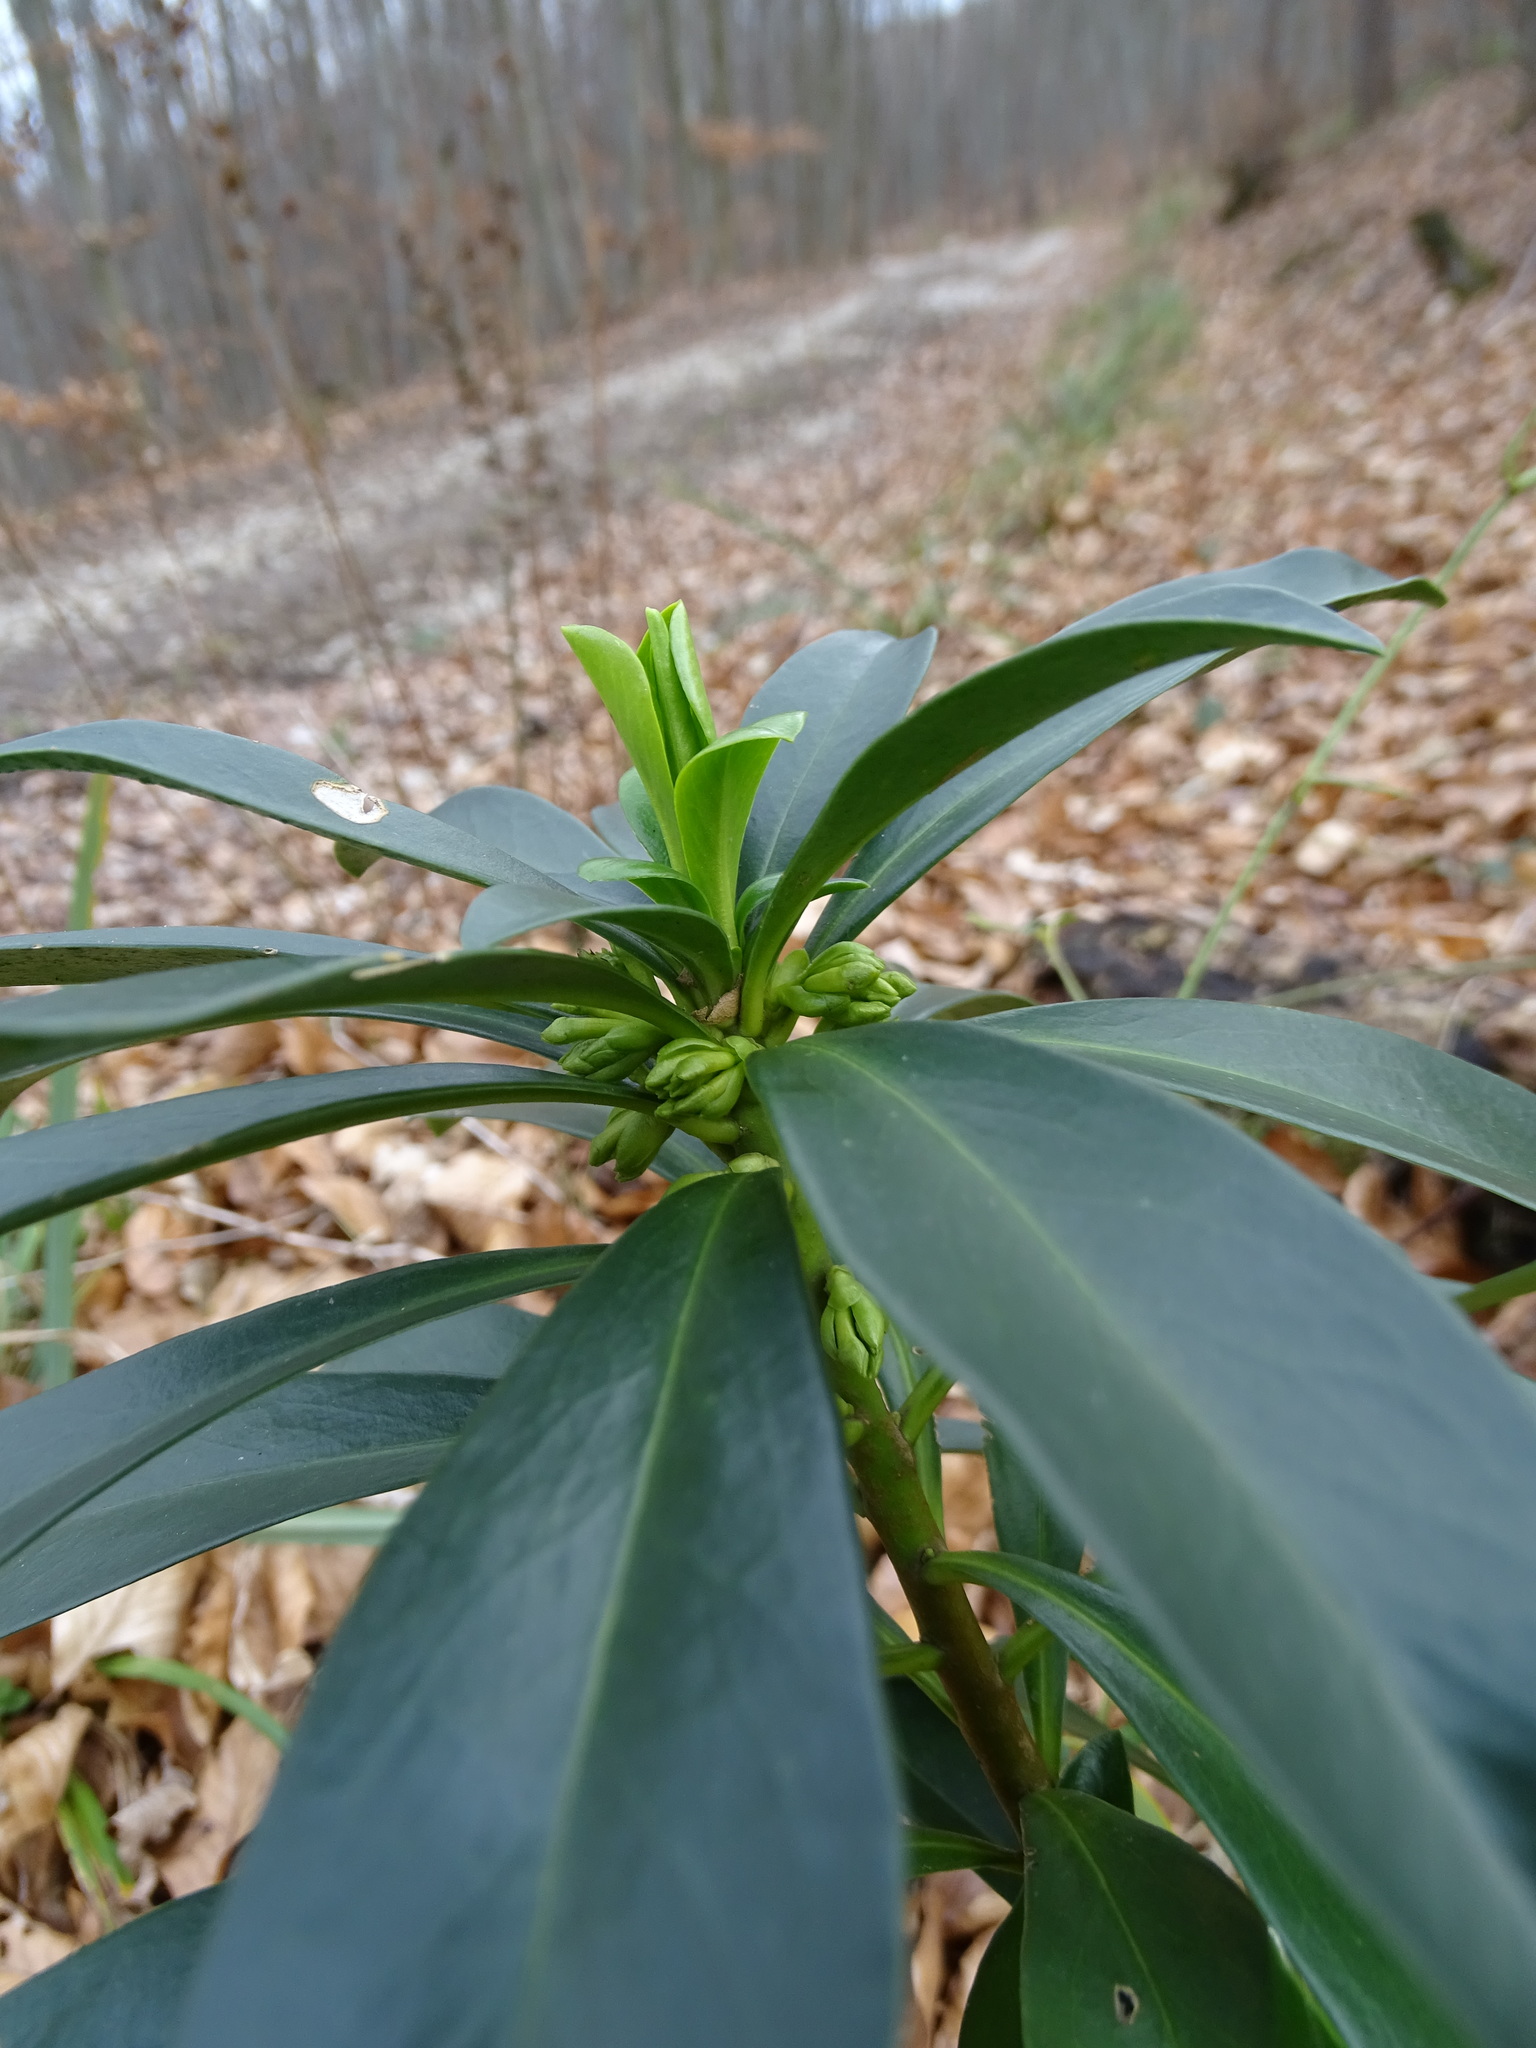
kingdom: Plantae
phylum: Tracheophyta
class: Magnoliopsida
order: Malvales
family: Thymelaeaceae
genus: Daphne
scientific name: Daphne laureola
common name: Spurge-laurel
